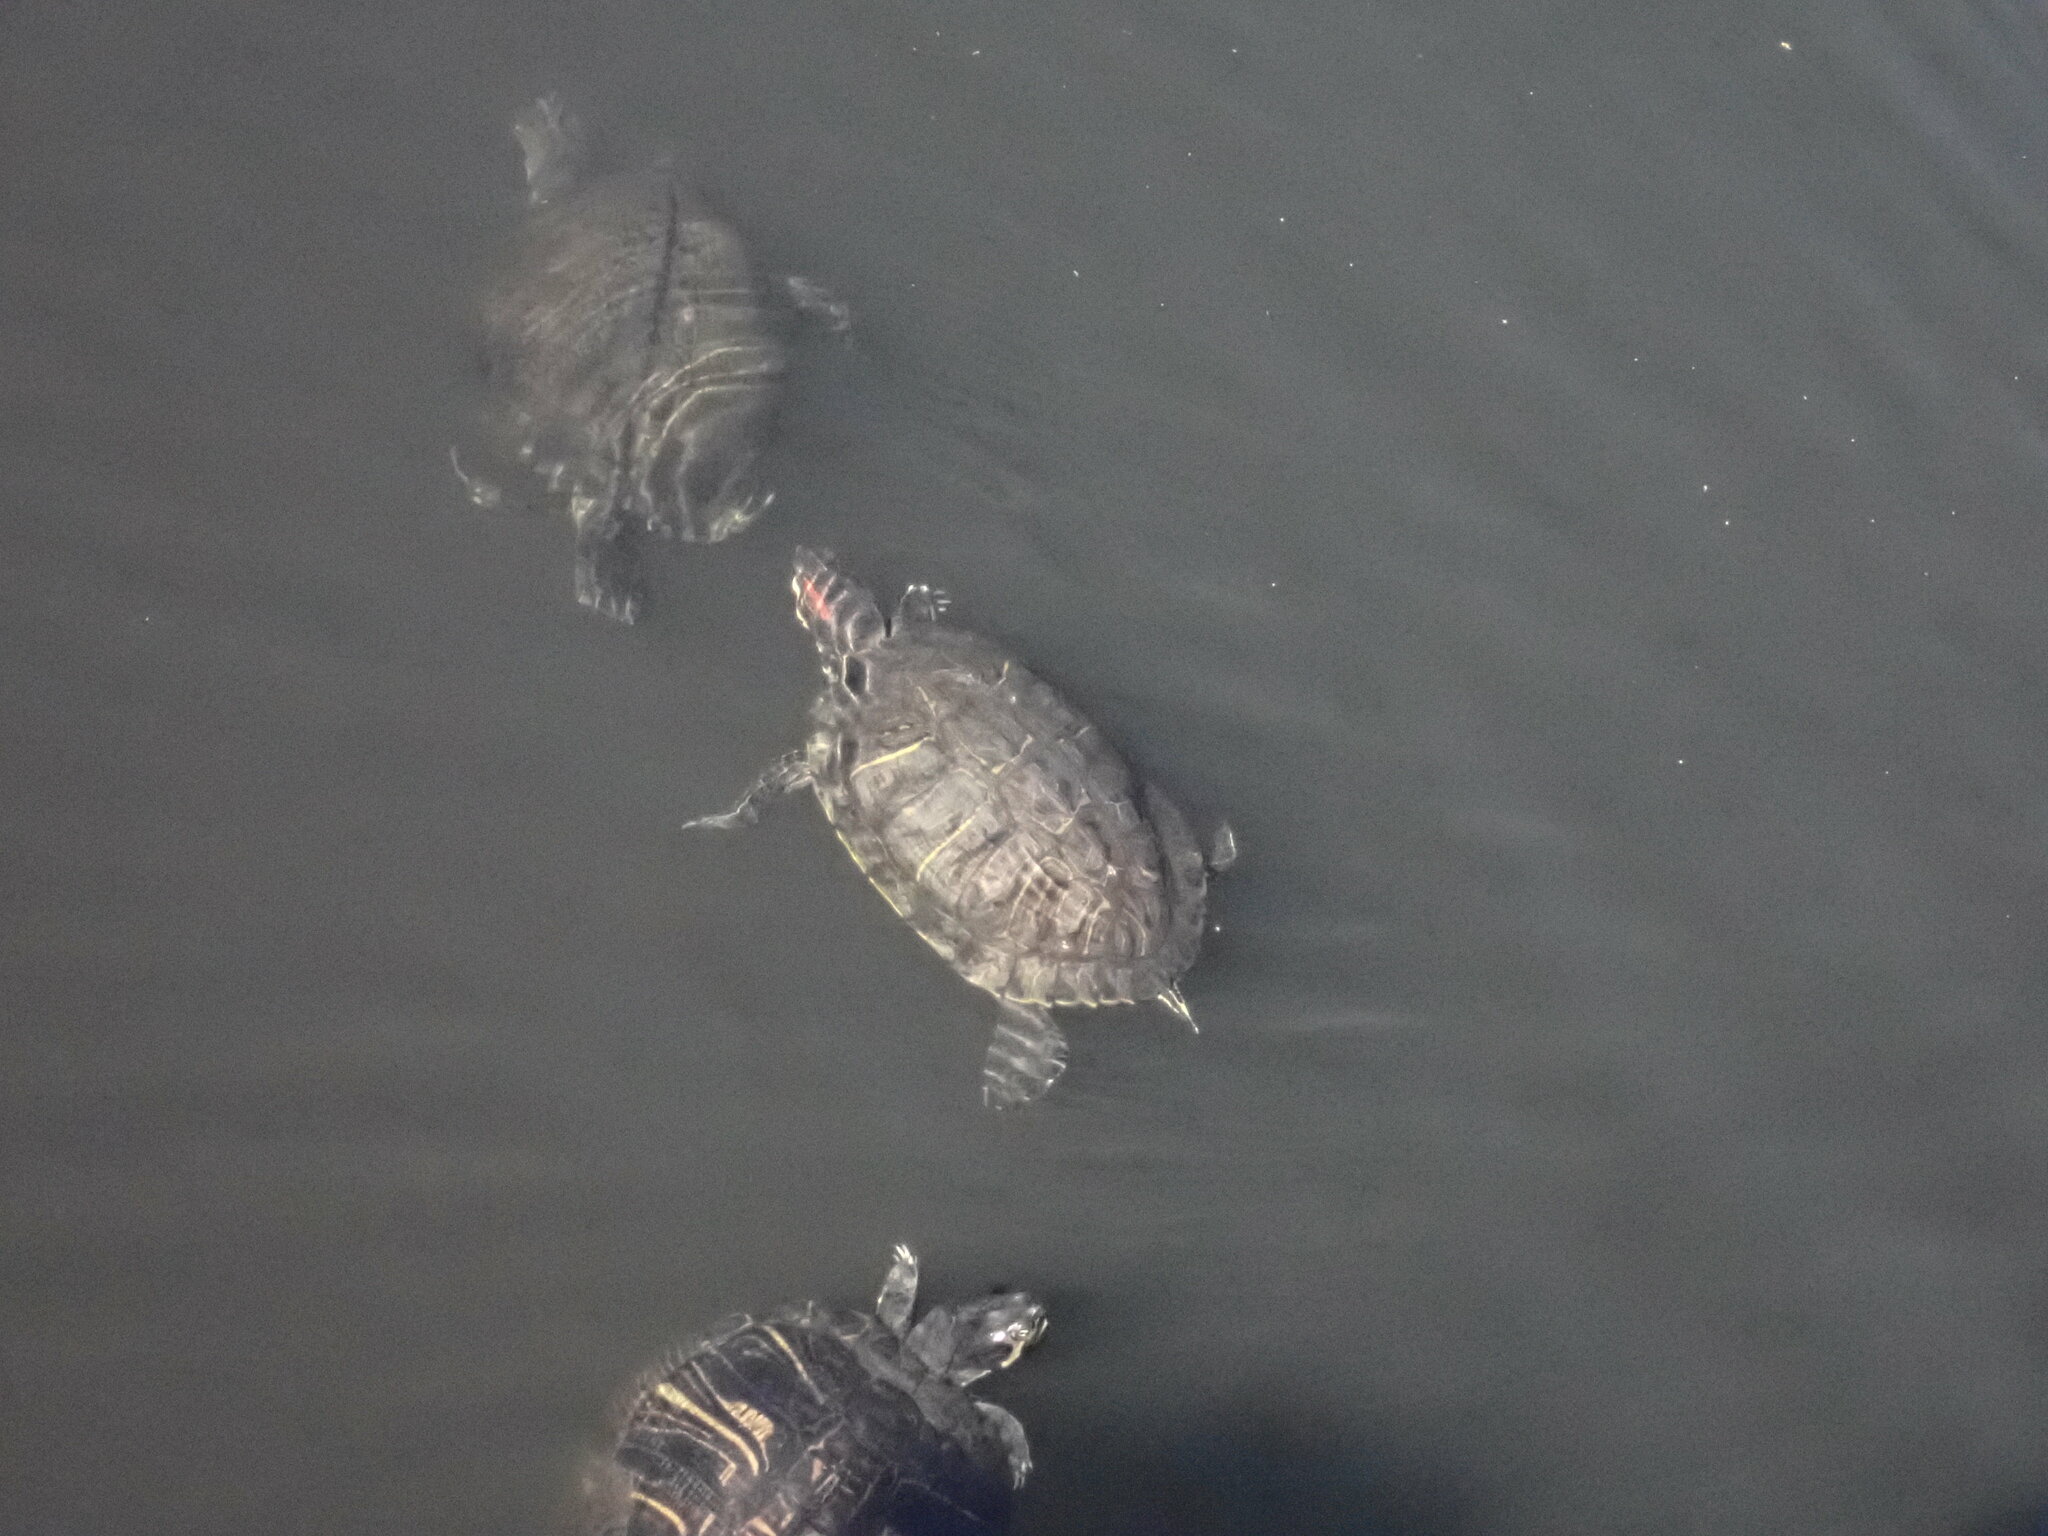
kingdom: Animalia
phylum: Chordata
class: Testudines
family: Emydidae
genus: Trachemys
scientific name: Trachemys scripta
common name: Slider
